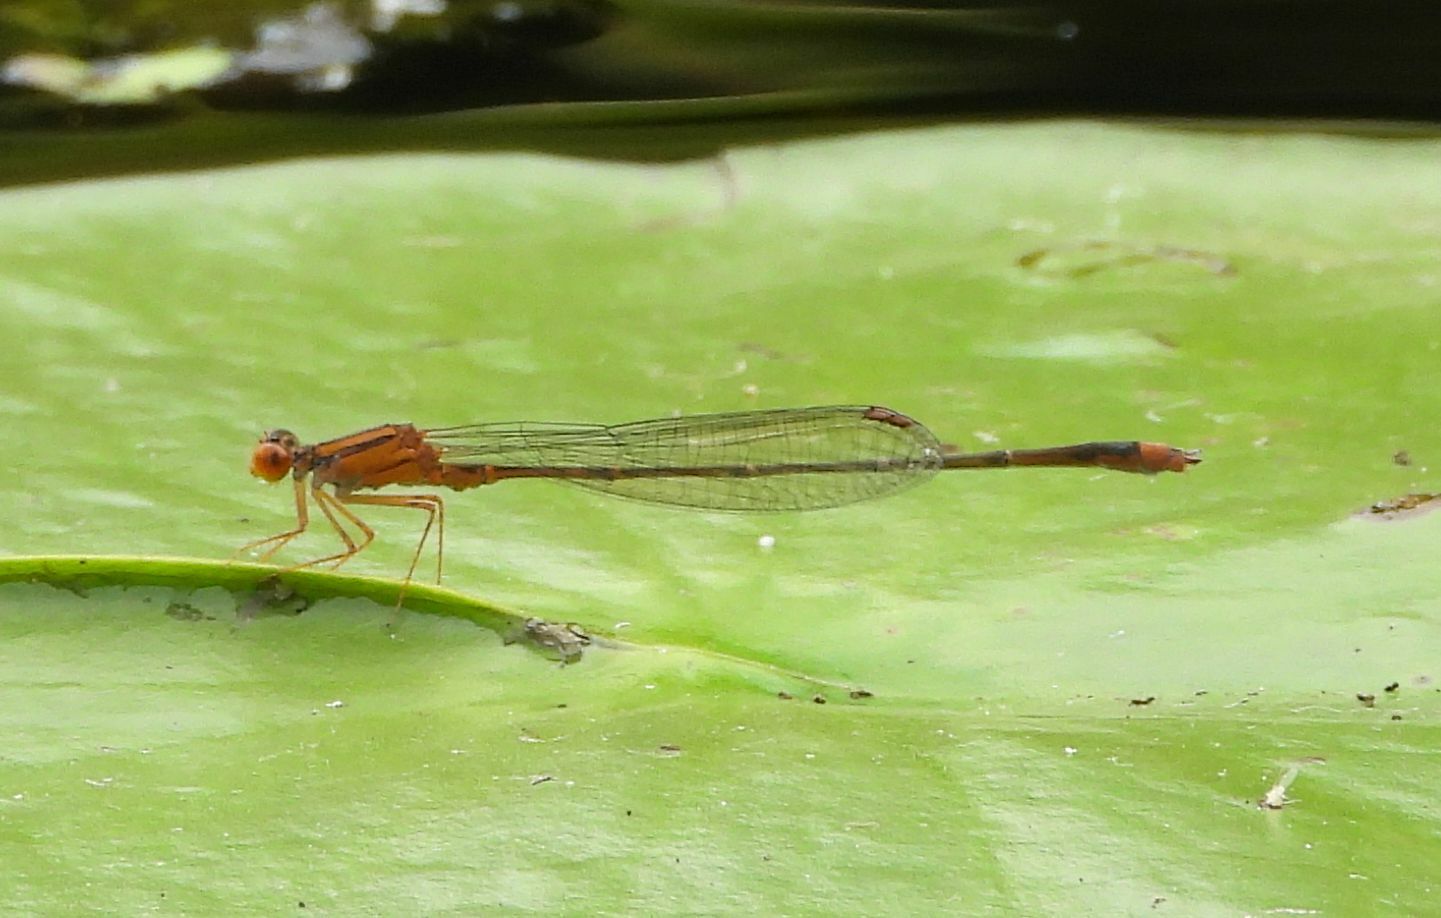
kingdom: Animalia
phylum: Arthropoda
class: Insecta
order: Odonata
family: Coenagrionidae
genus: Enallagma
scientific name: Enallagma signatum
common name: Orange bluet
